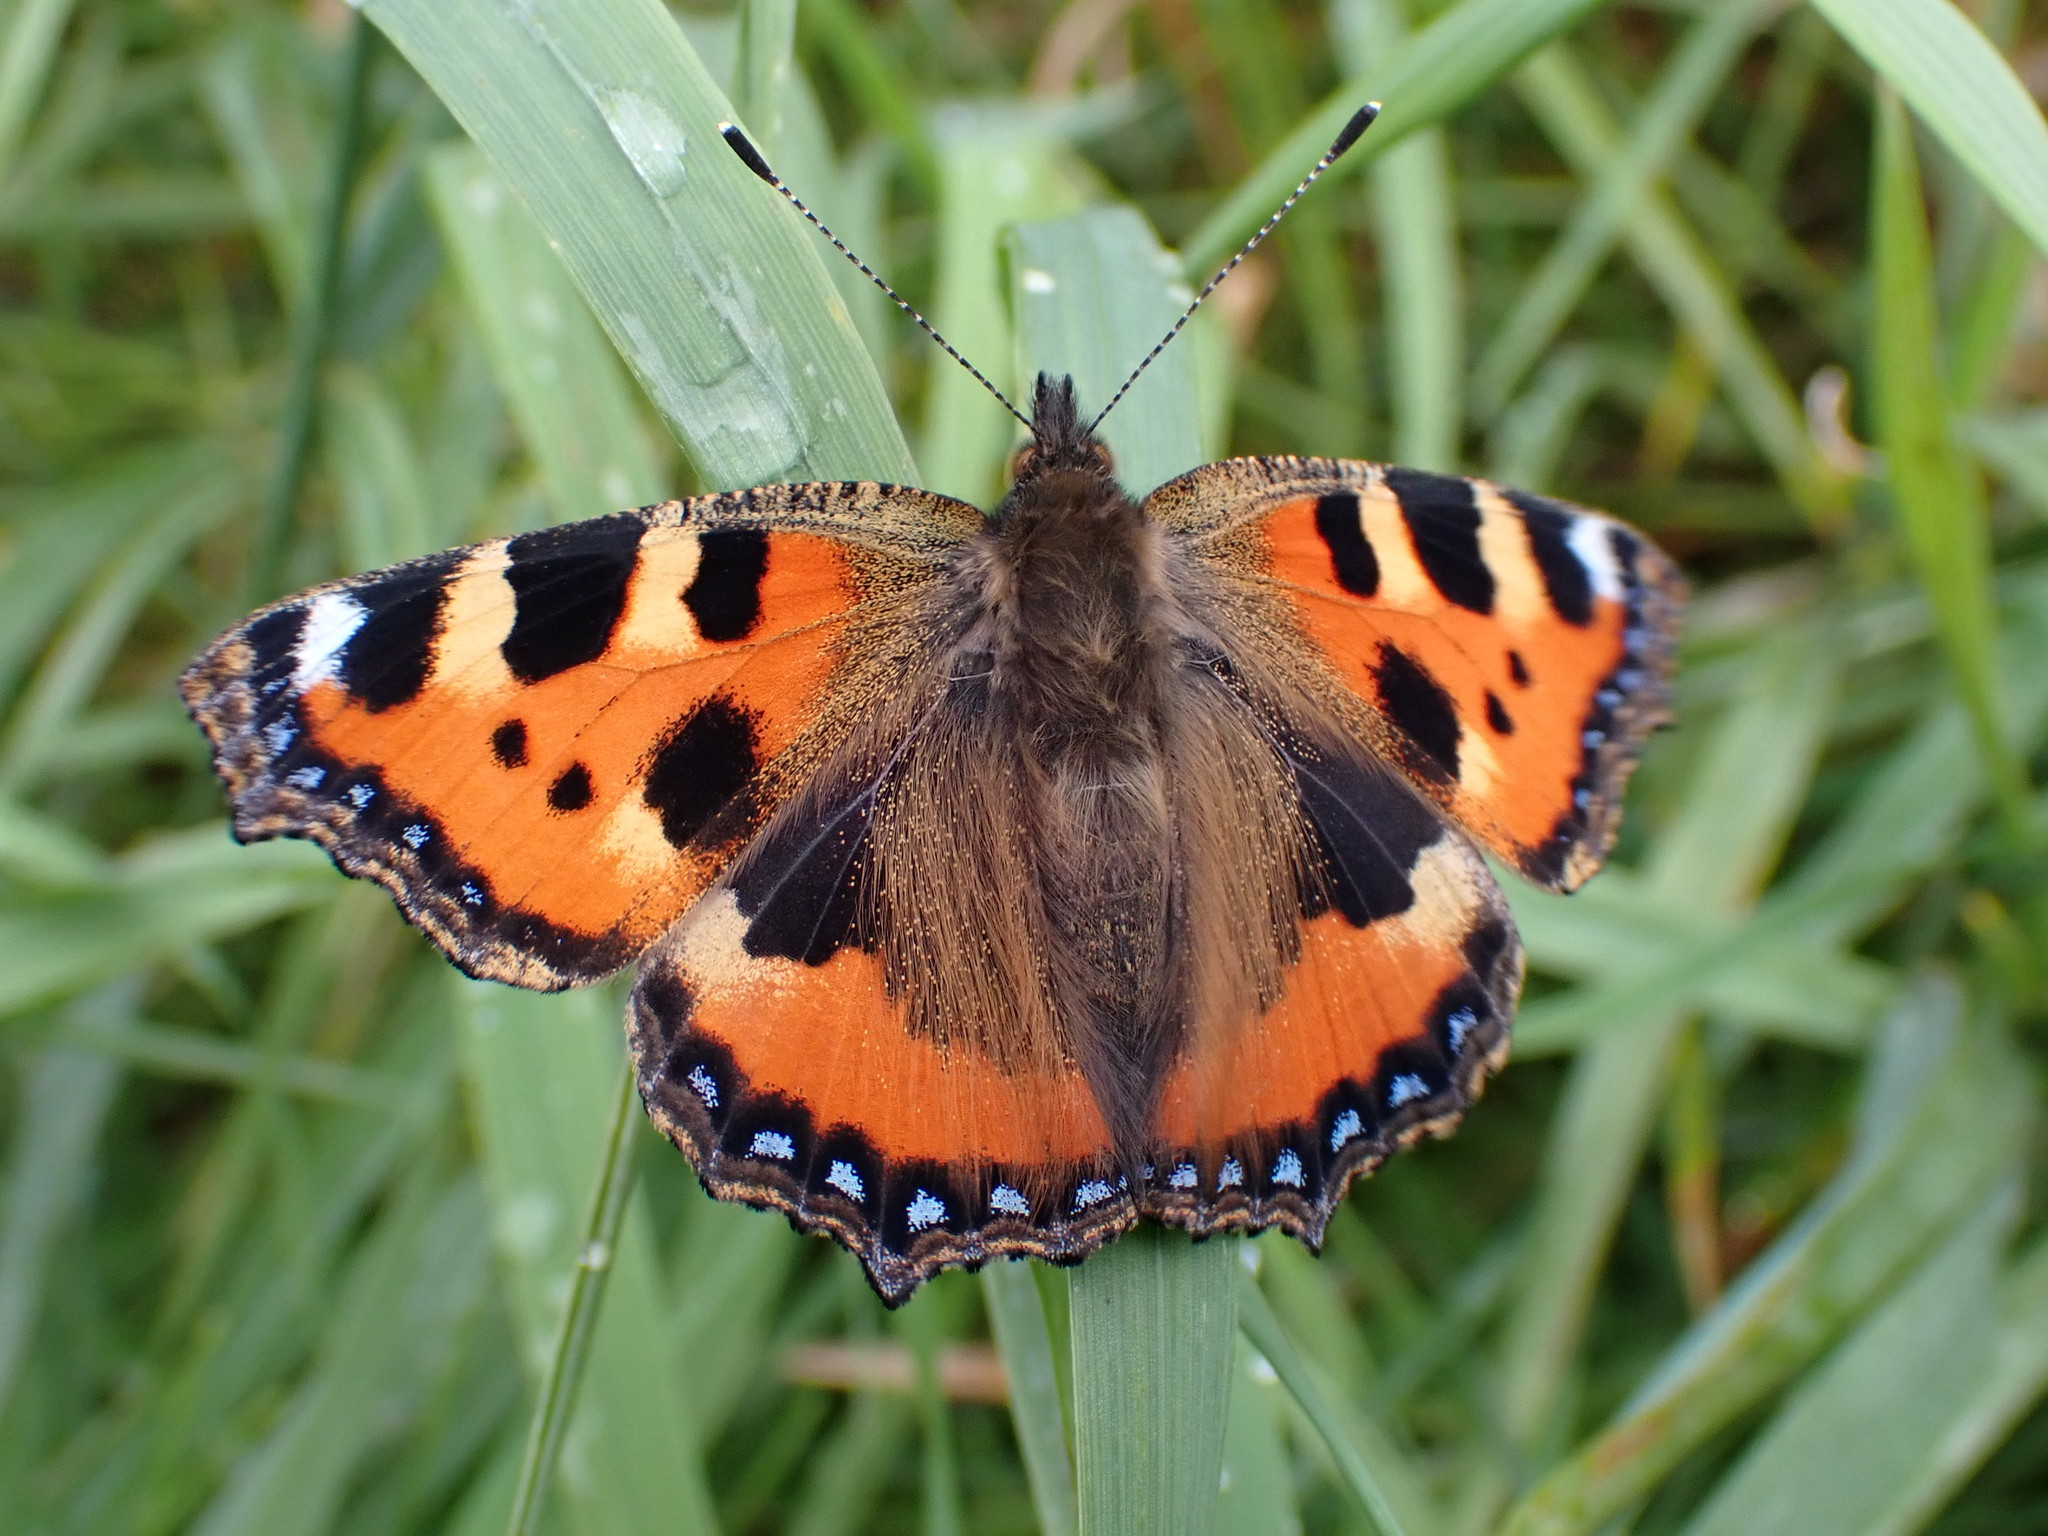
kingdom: Animalia
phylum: Arthropoda
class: Insecta
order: Lepidoptera
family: Nymphalidae
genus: Aglais
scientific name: Aglais urticae
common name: Small tortoiseshell
